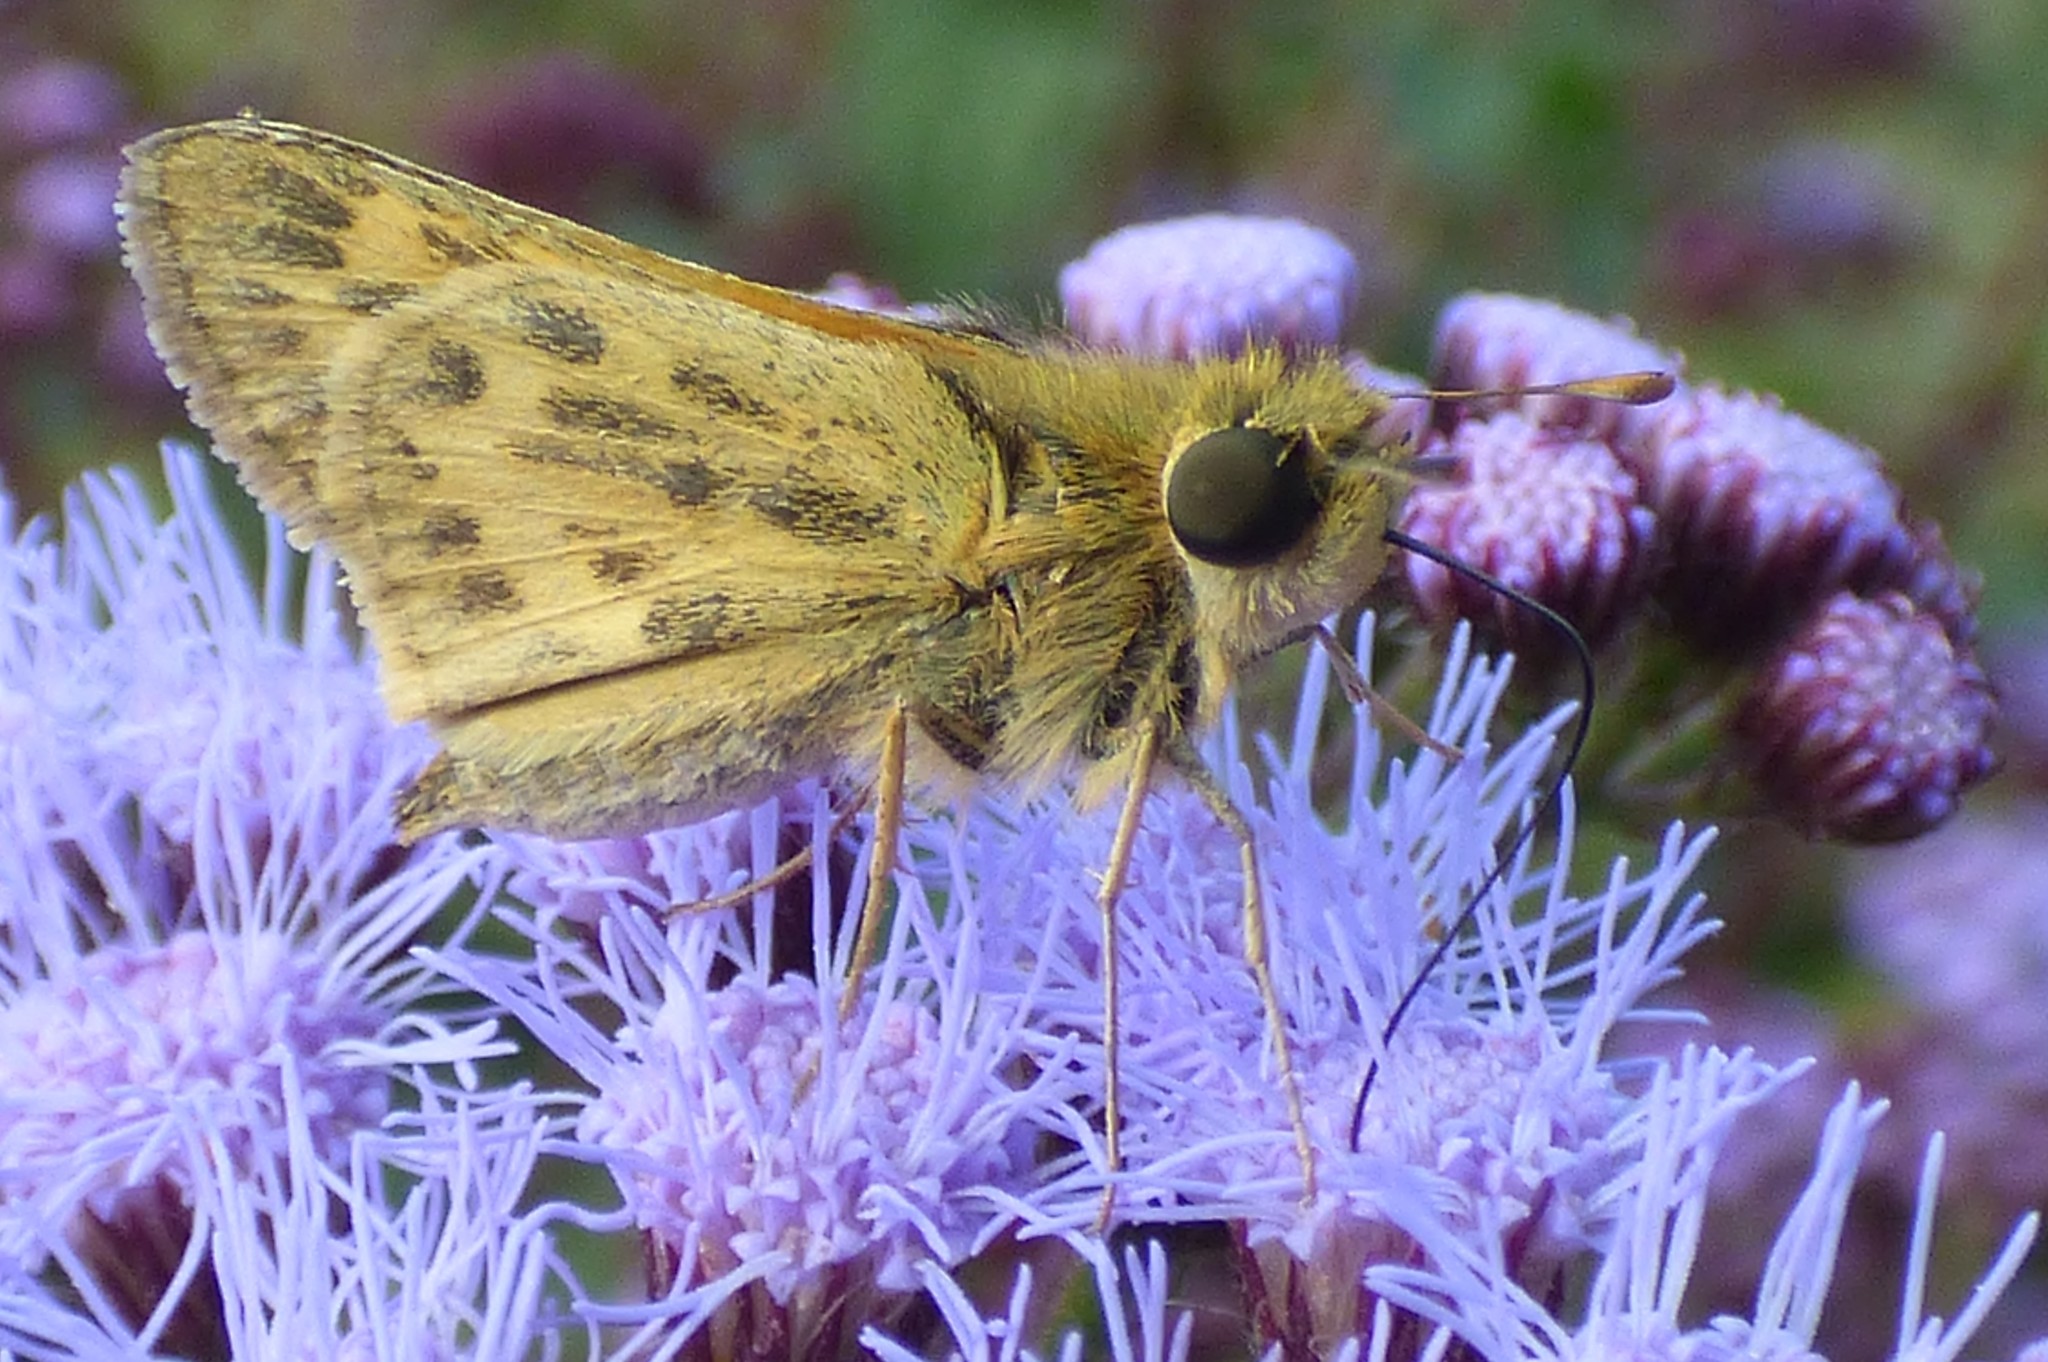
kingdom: Animalia
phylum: Arthropoda
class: Insecta
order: Lepidoptera
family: Hesperiidae
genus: Hylephila
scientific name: Hylephila phyleus
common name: Fiery skipper
